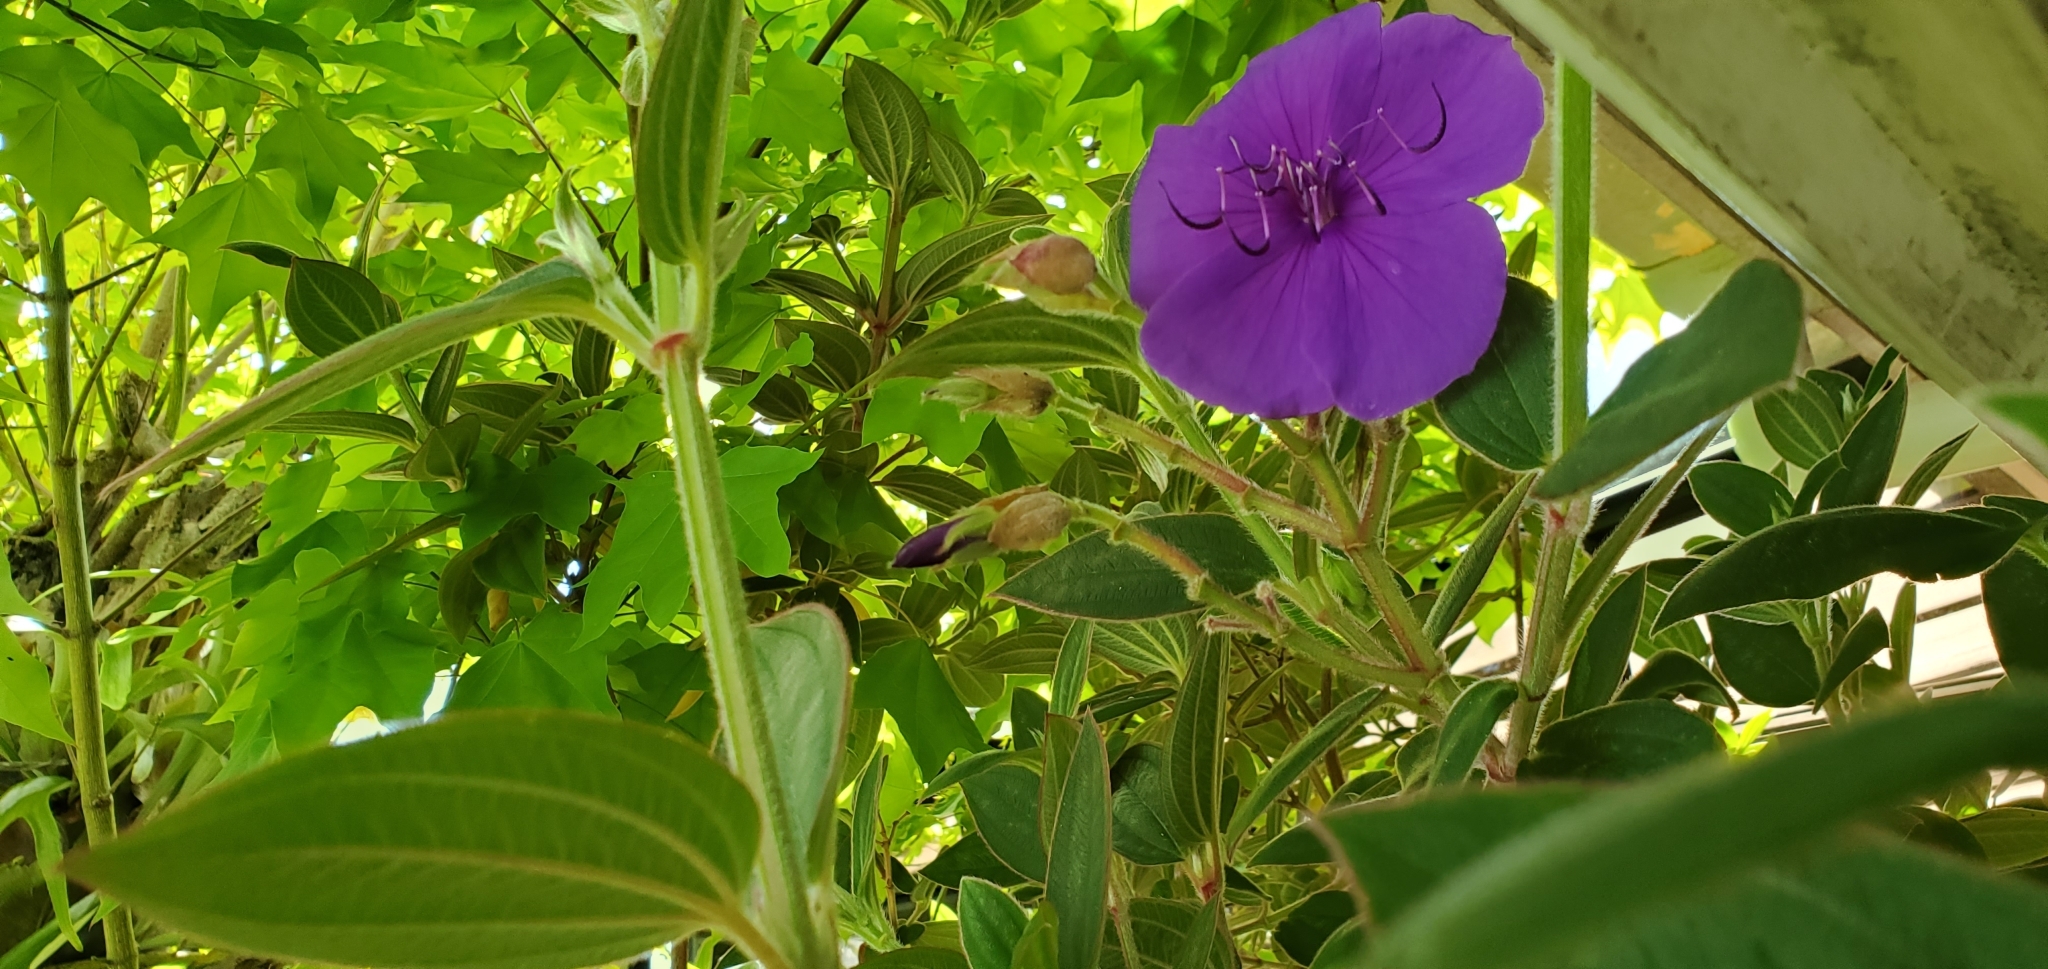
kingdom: Plantae
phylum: Tracheophyta
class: Magnoliopsida
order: Myrtales
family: Melastomataceae
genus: Pleroma
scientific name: Pleroma urvilleanum
